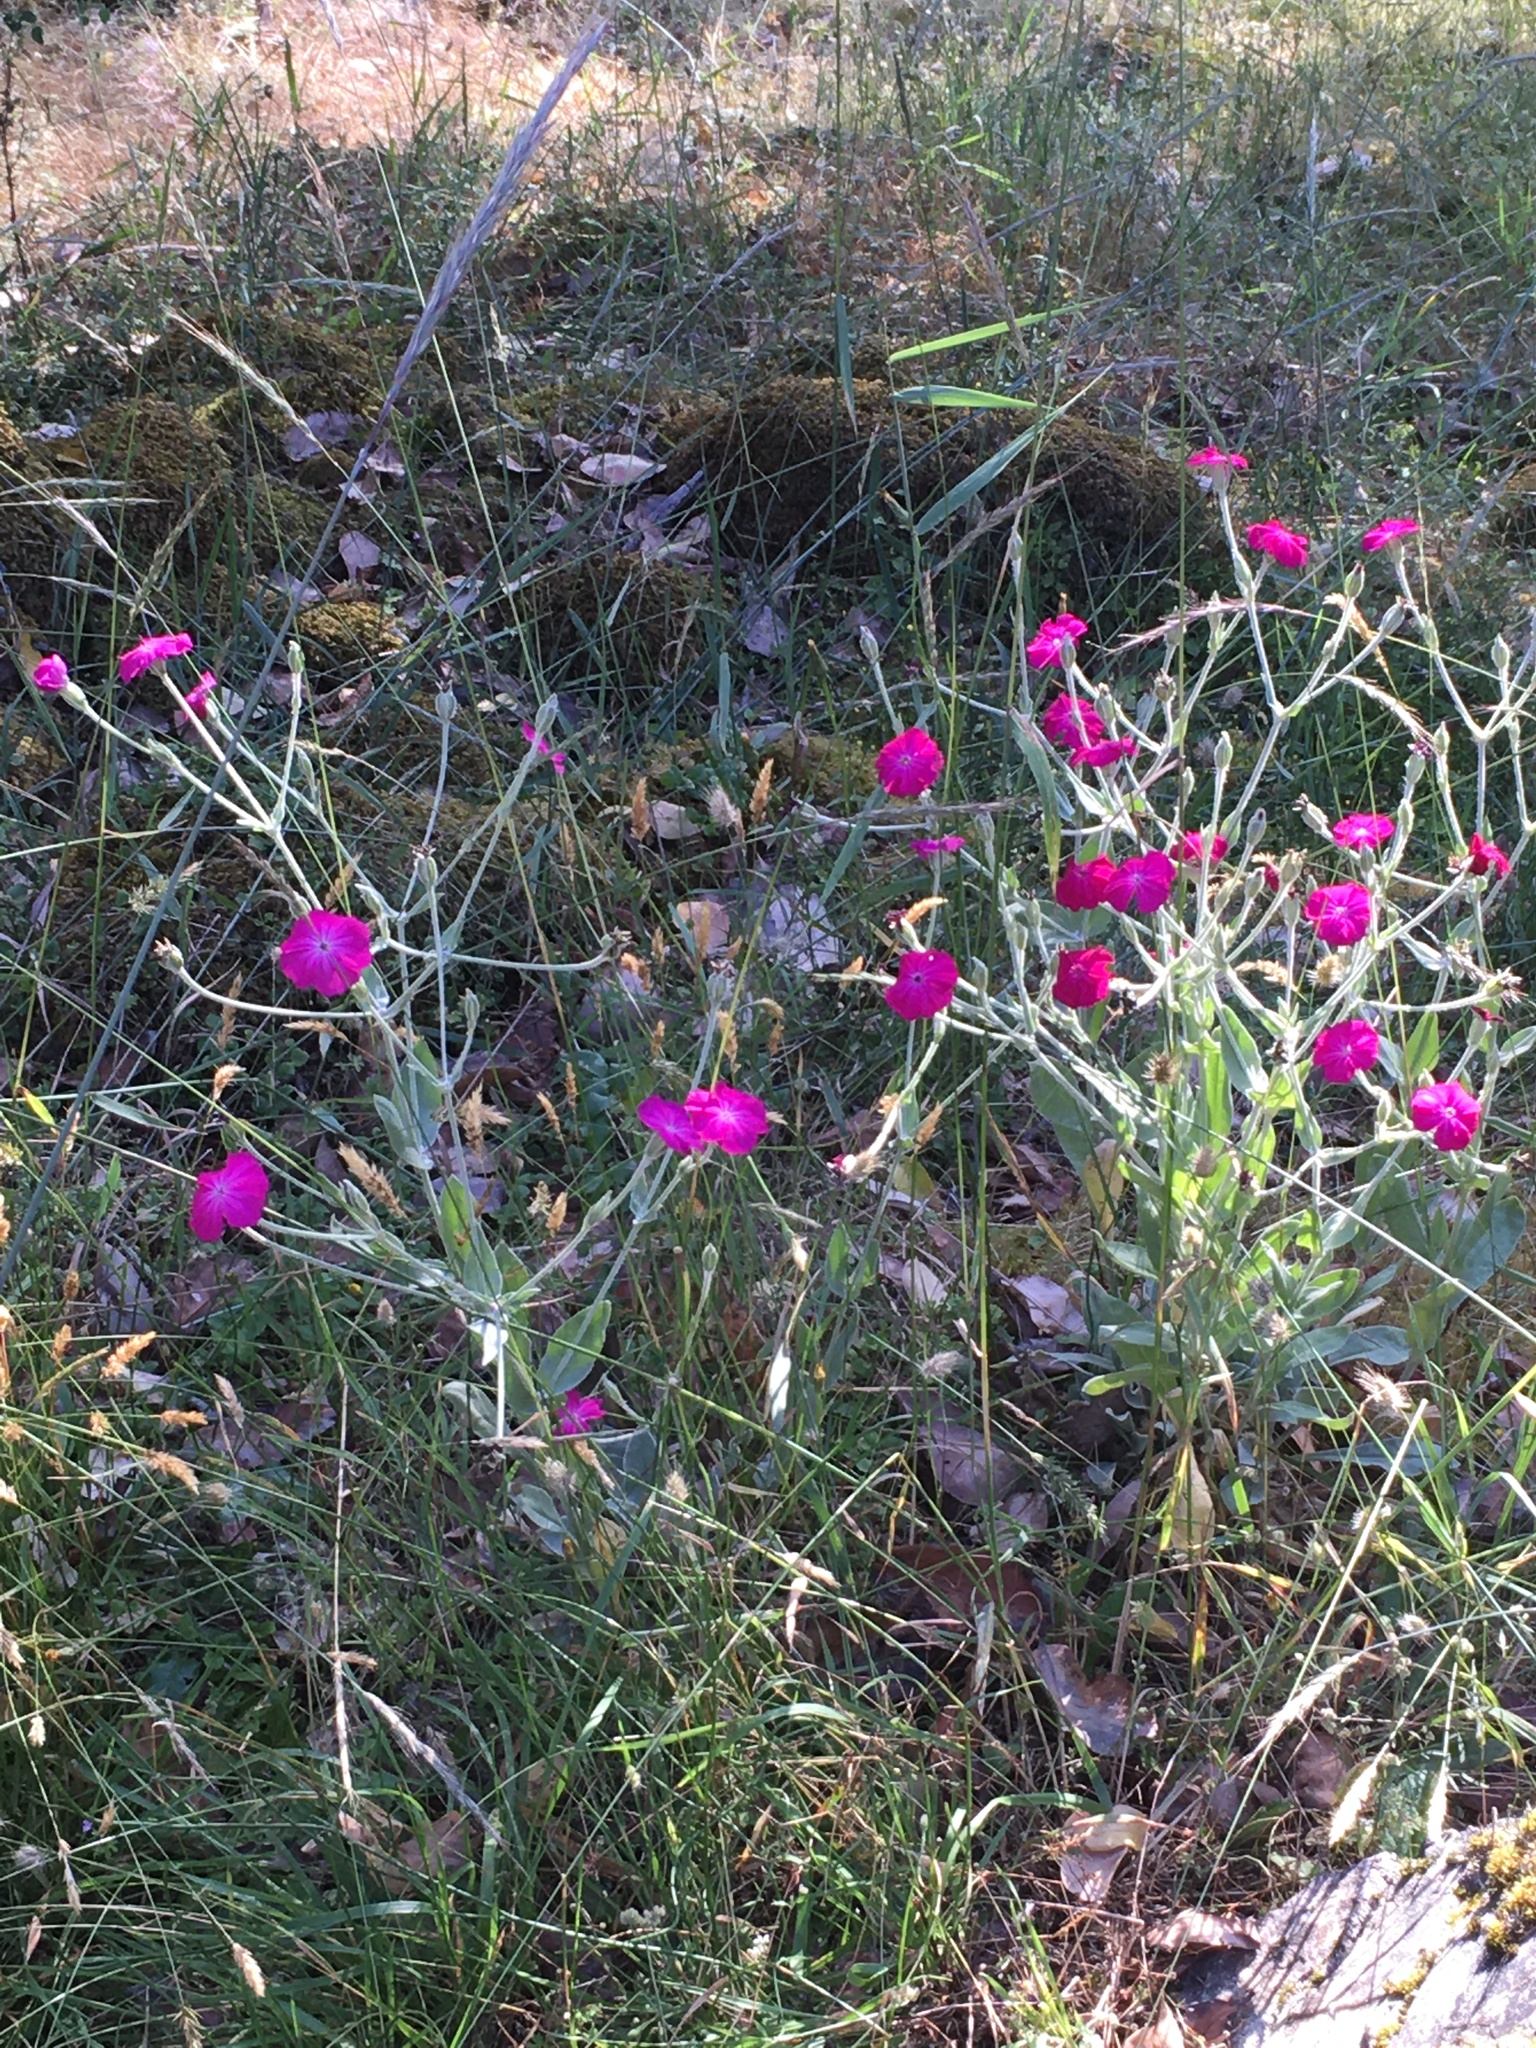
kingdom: Plantae
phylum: Tracheophyta
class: Magnoliopsida
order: Caryophyllales
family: Caryophyllaceae
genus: Silene
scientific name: Silene coronaria
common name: Rose campion
